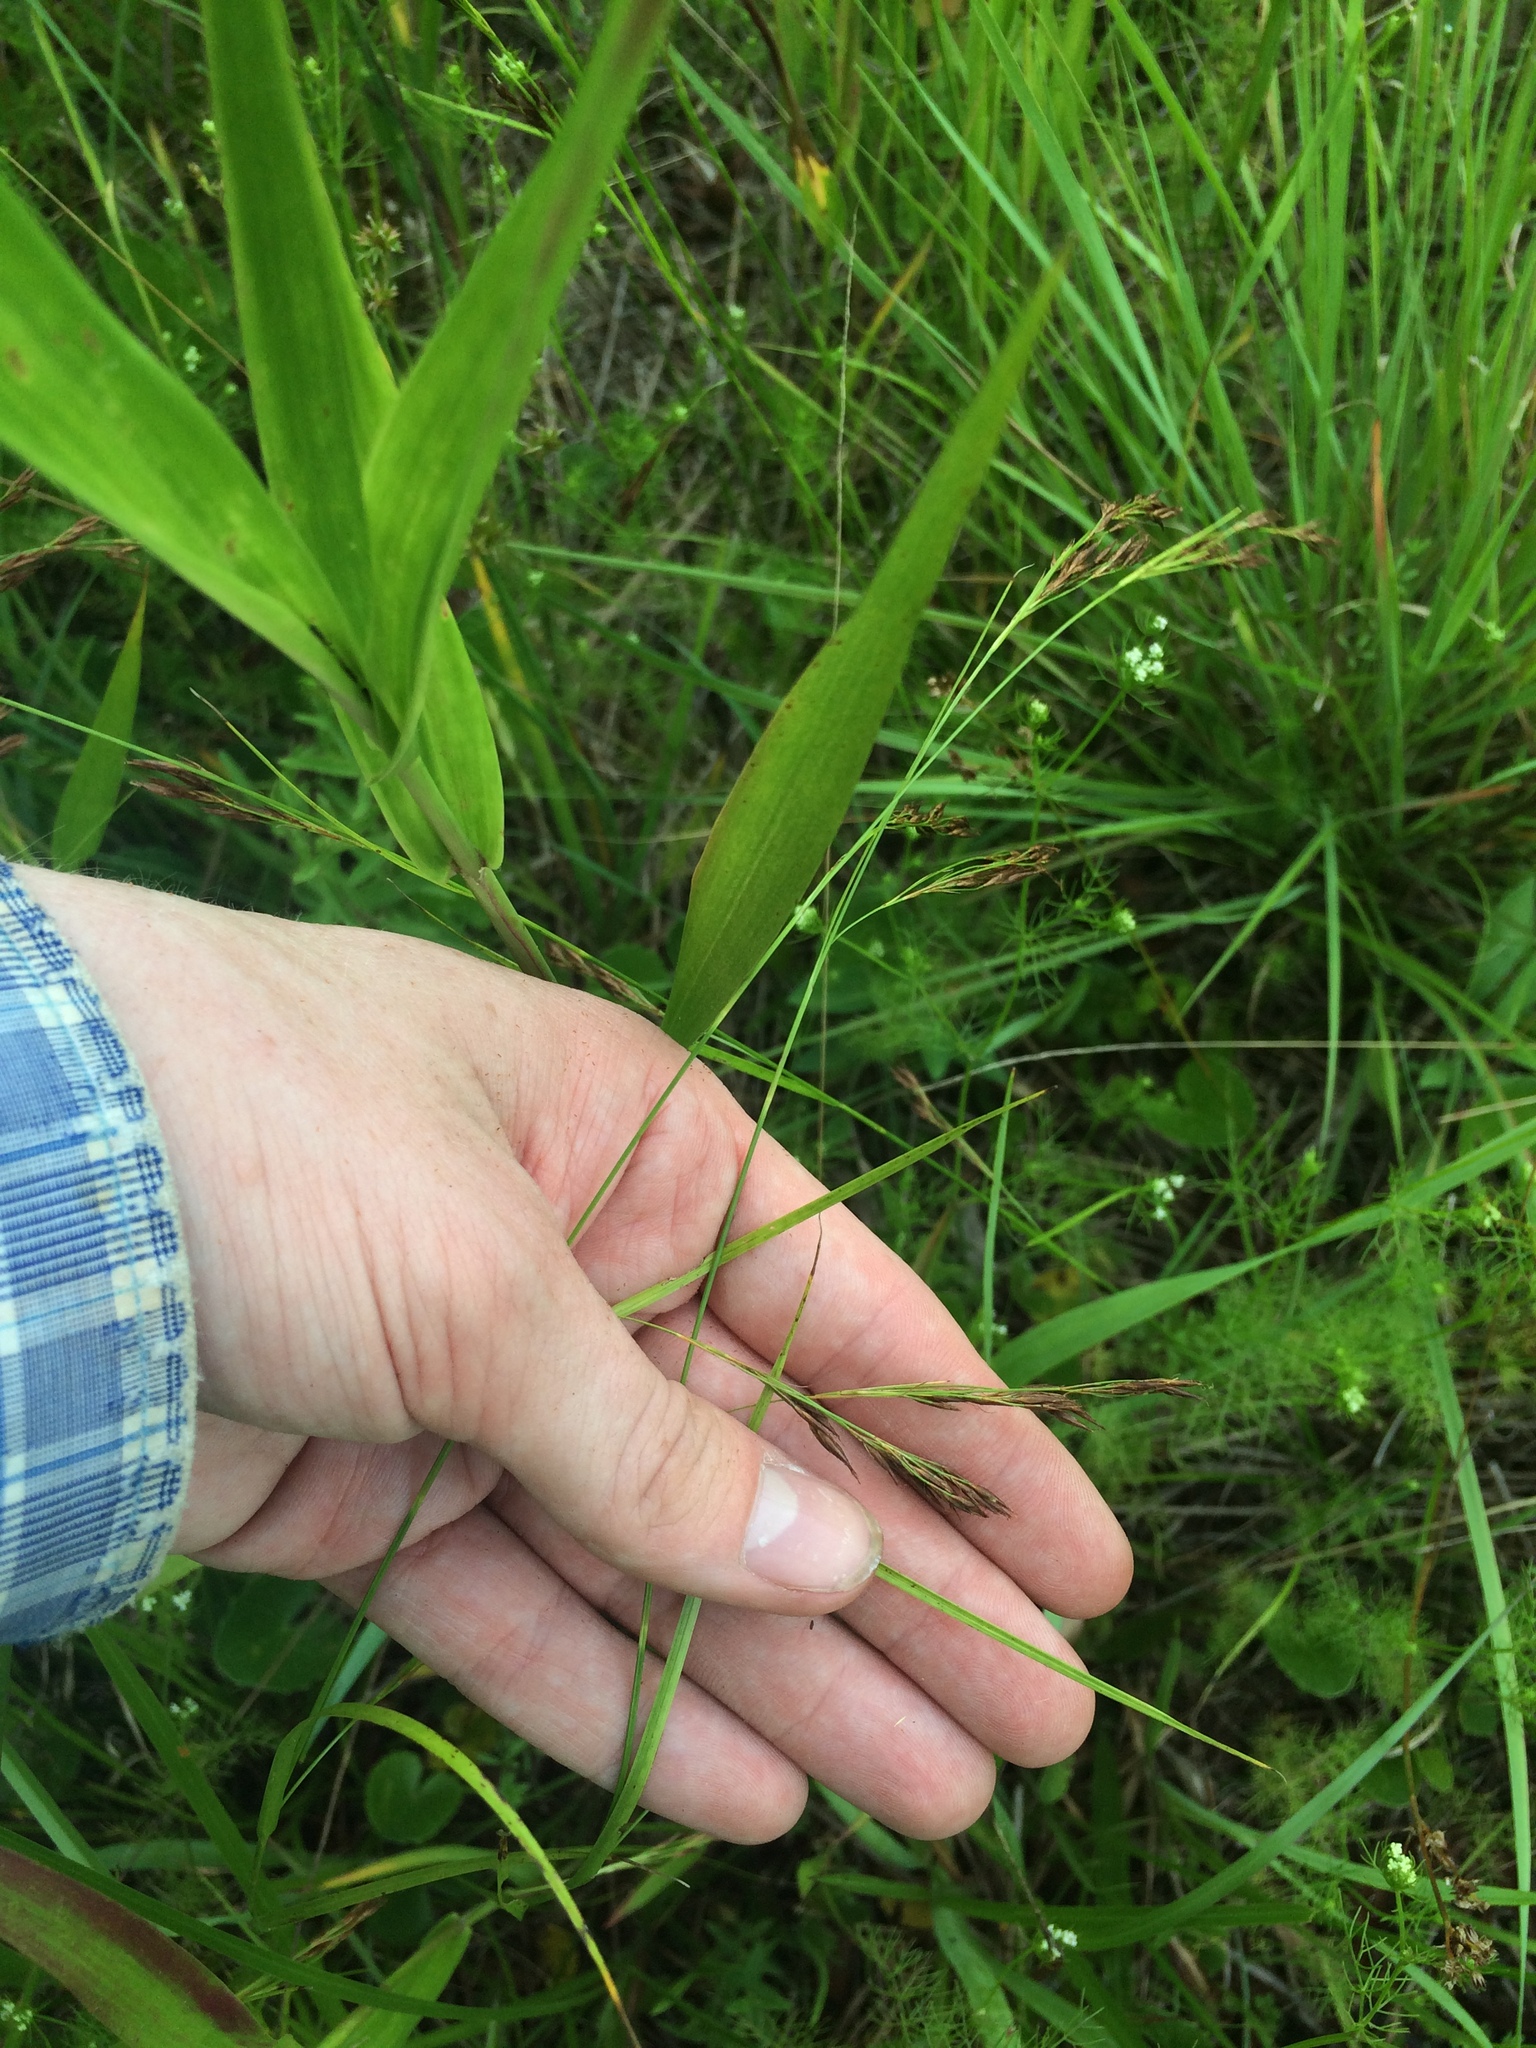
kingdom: Plantae
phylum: Tracheophyta
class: Liliopsida
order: Poales
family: Cyperaceae
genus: Rhynchospora
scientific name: Rhynchospora inexpansa
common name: Nodding beaksedge
